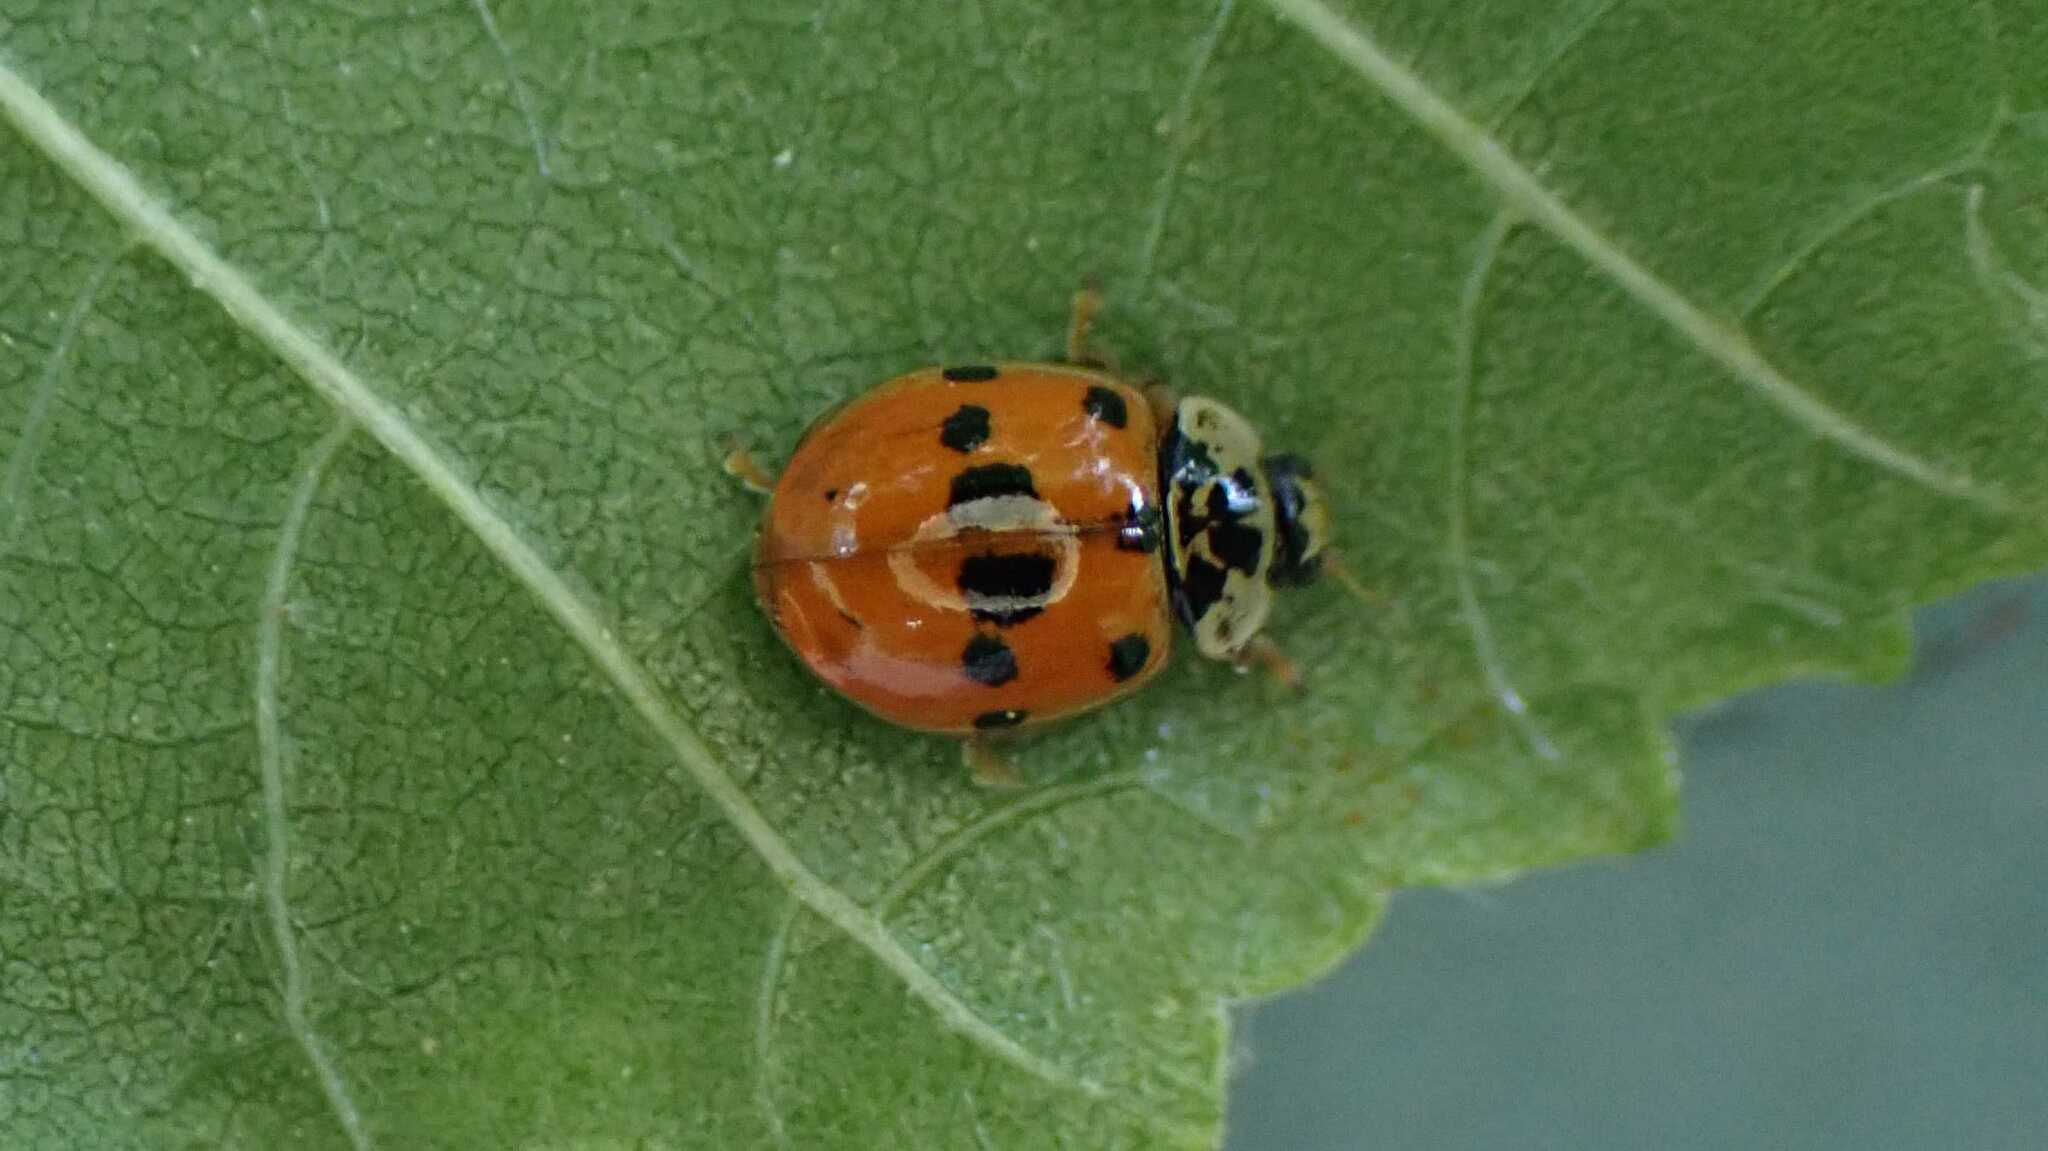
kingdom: Animalia
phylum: Arthropoda
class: Insecta
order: Coleoptera
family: Coccinellidae
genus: Adalia
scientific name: Adalia decempunctata
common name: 10-spot ladybird
